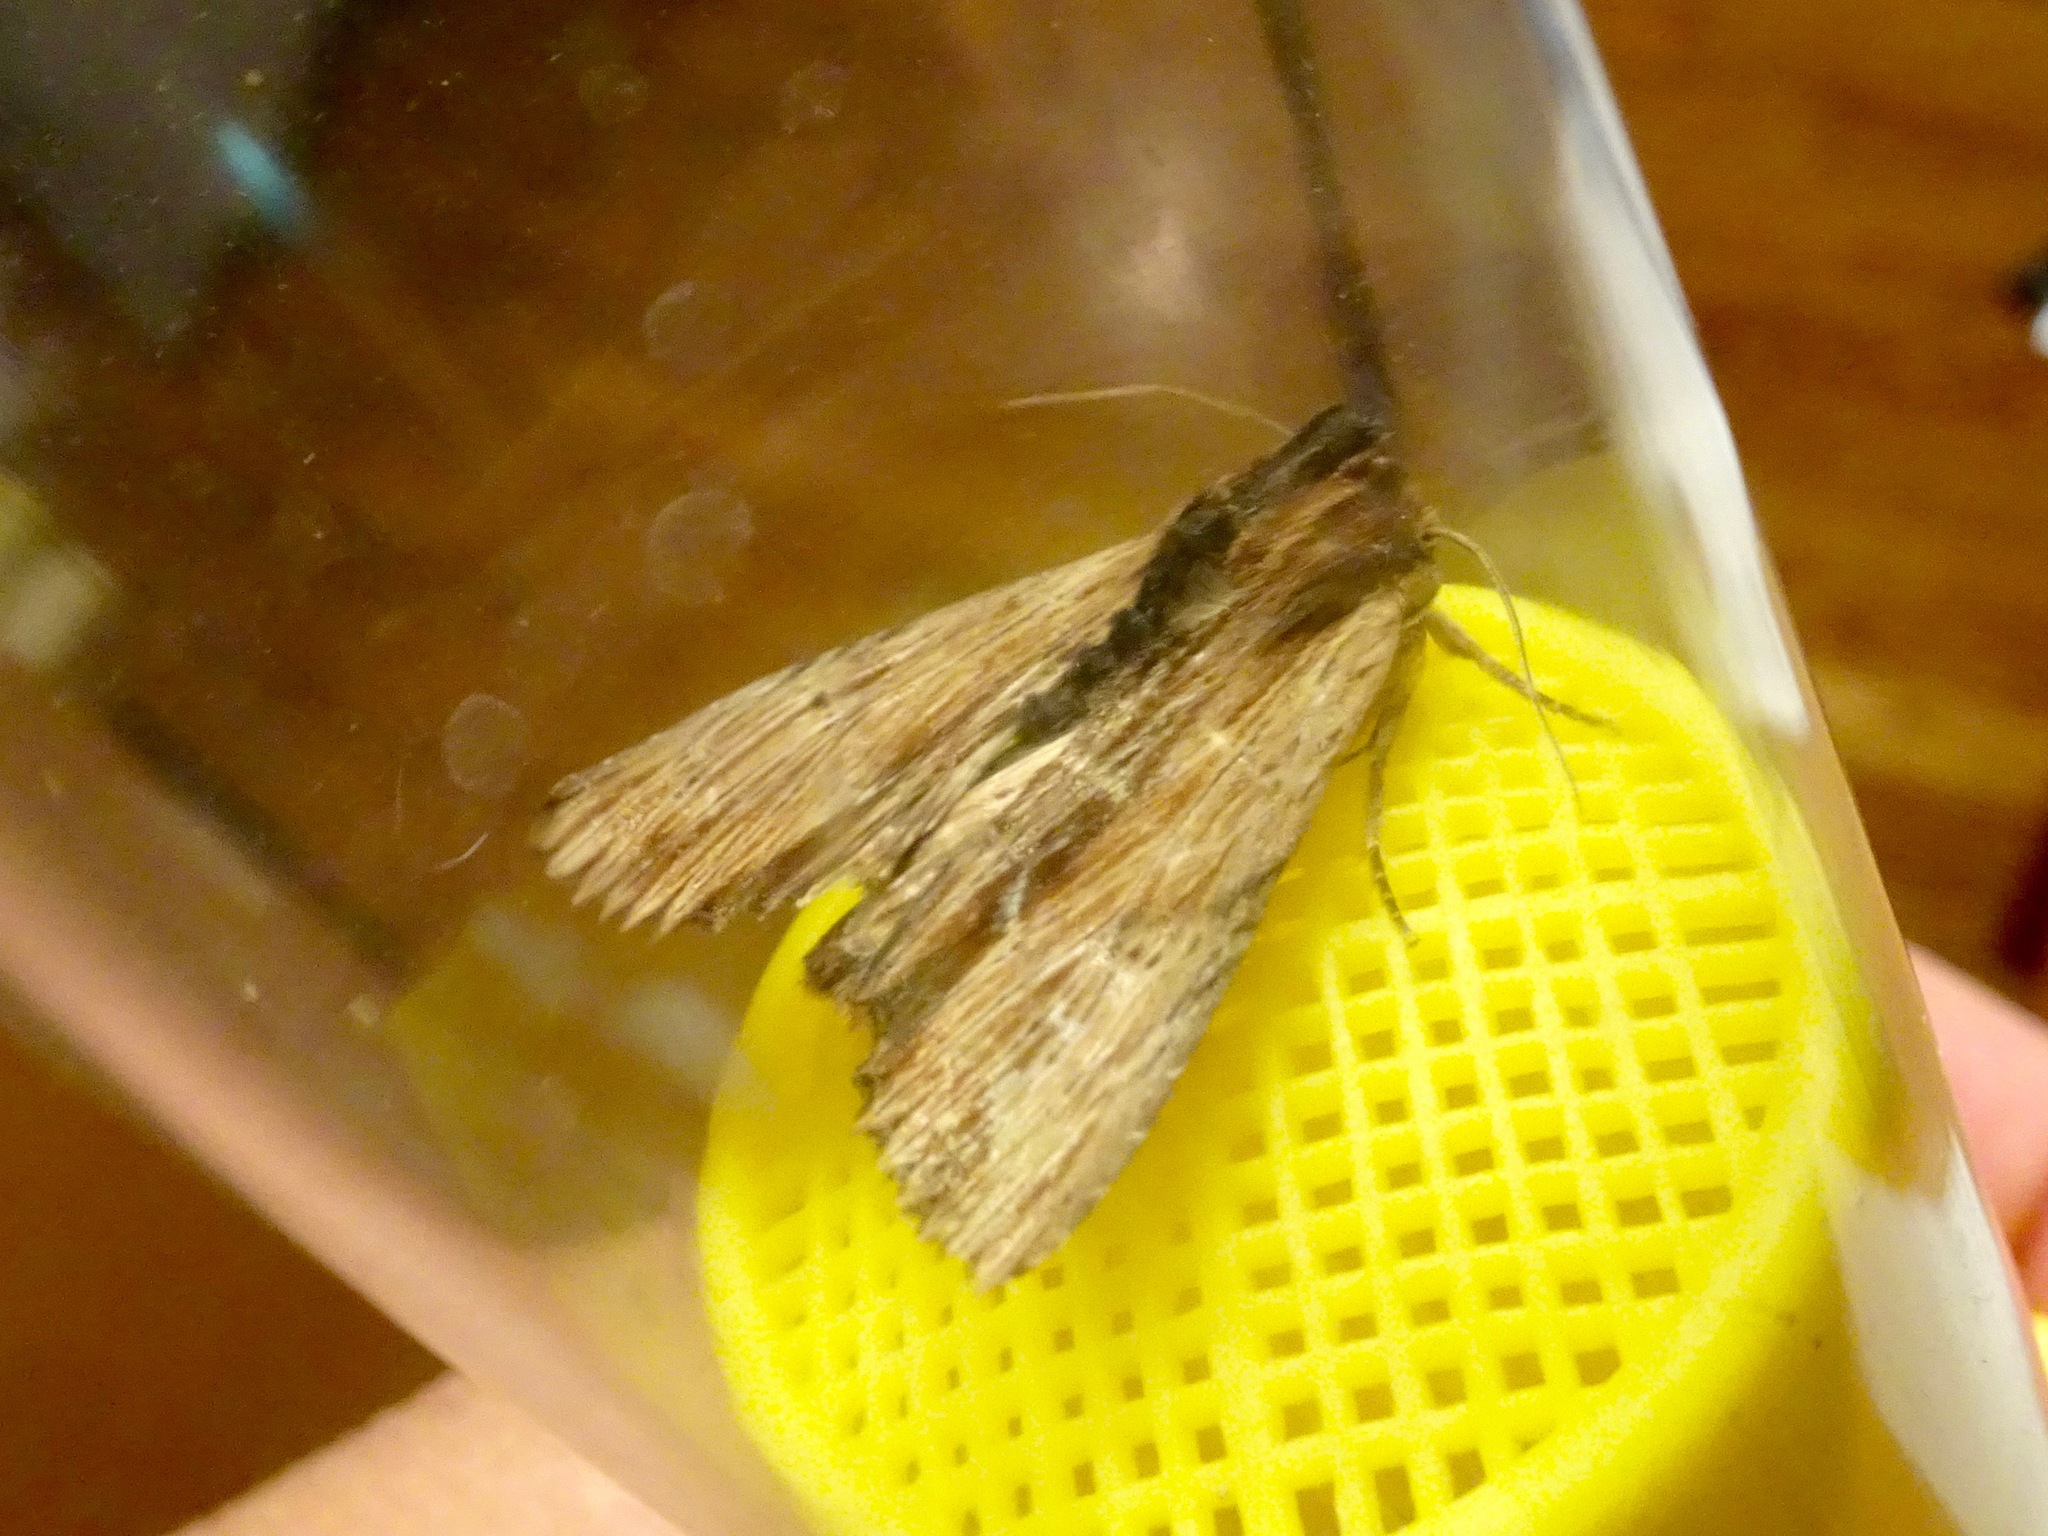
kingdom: Animalia
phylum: Arthropoda
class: Insecta
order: Lepidoptera
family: Noctuidae
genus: Apamea
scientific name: Apamea cuculliformis
